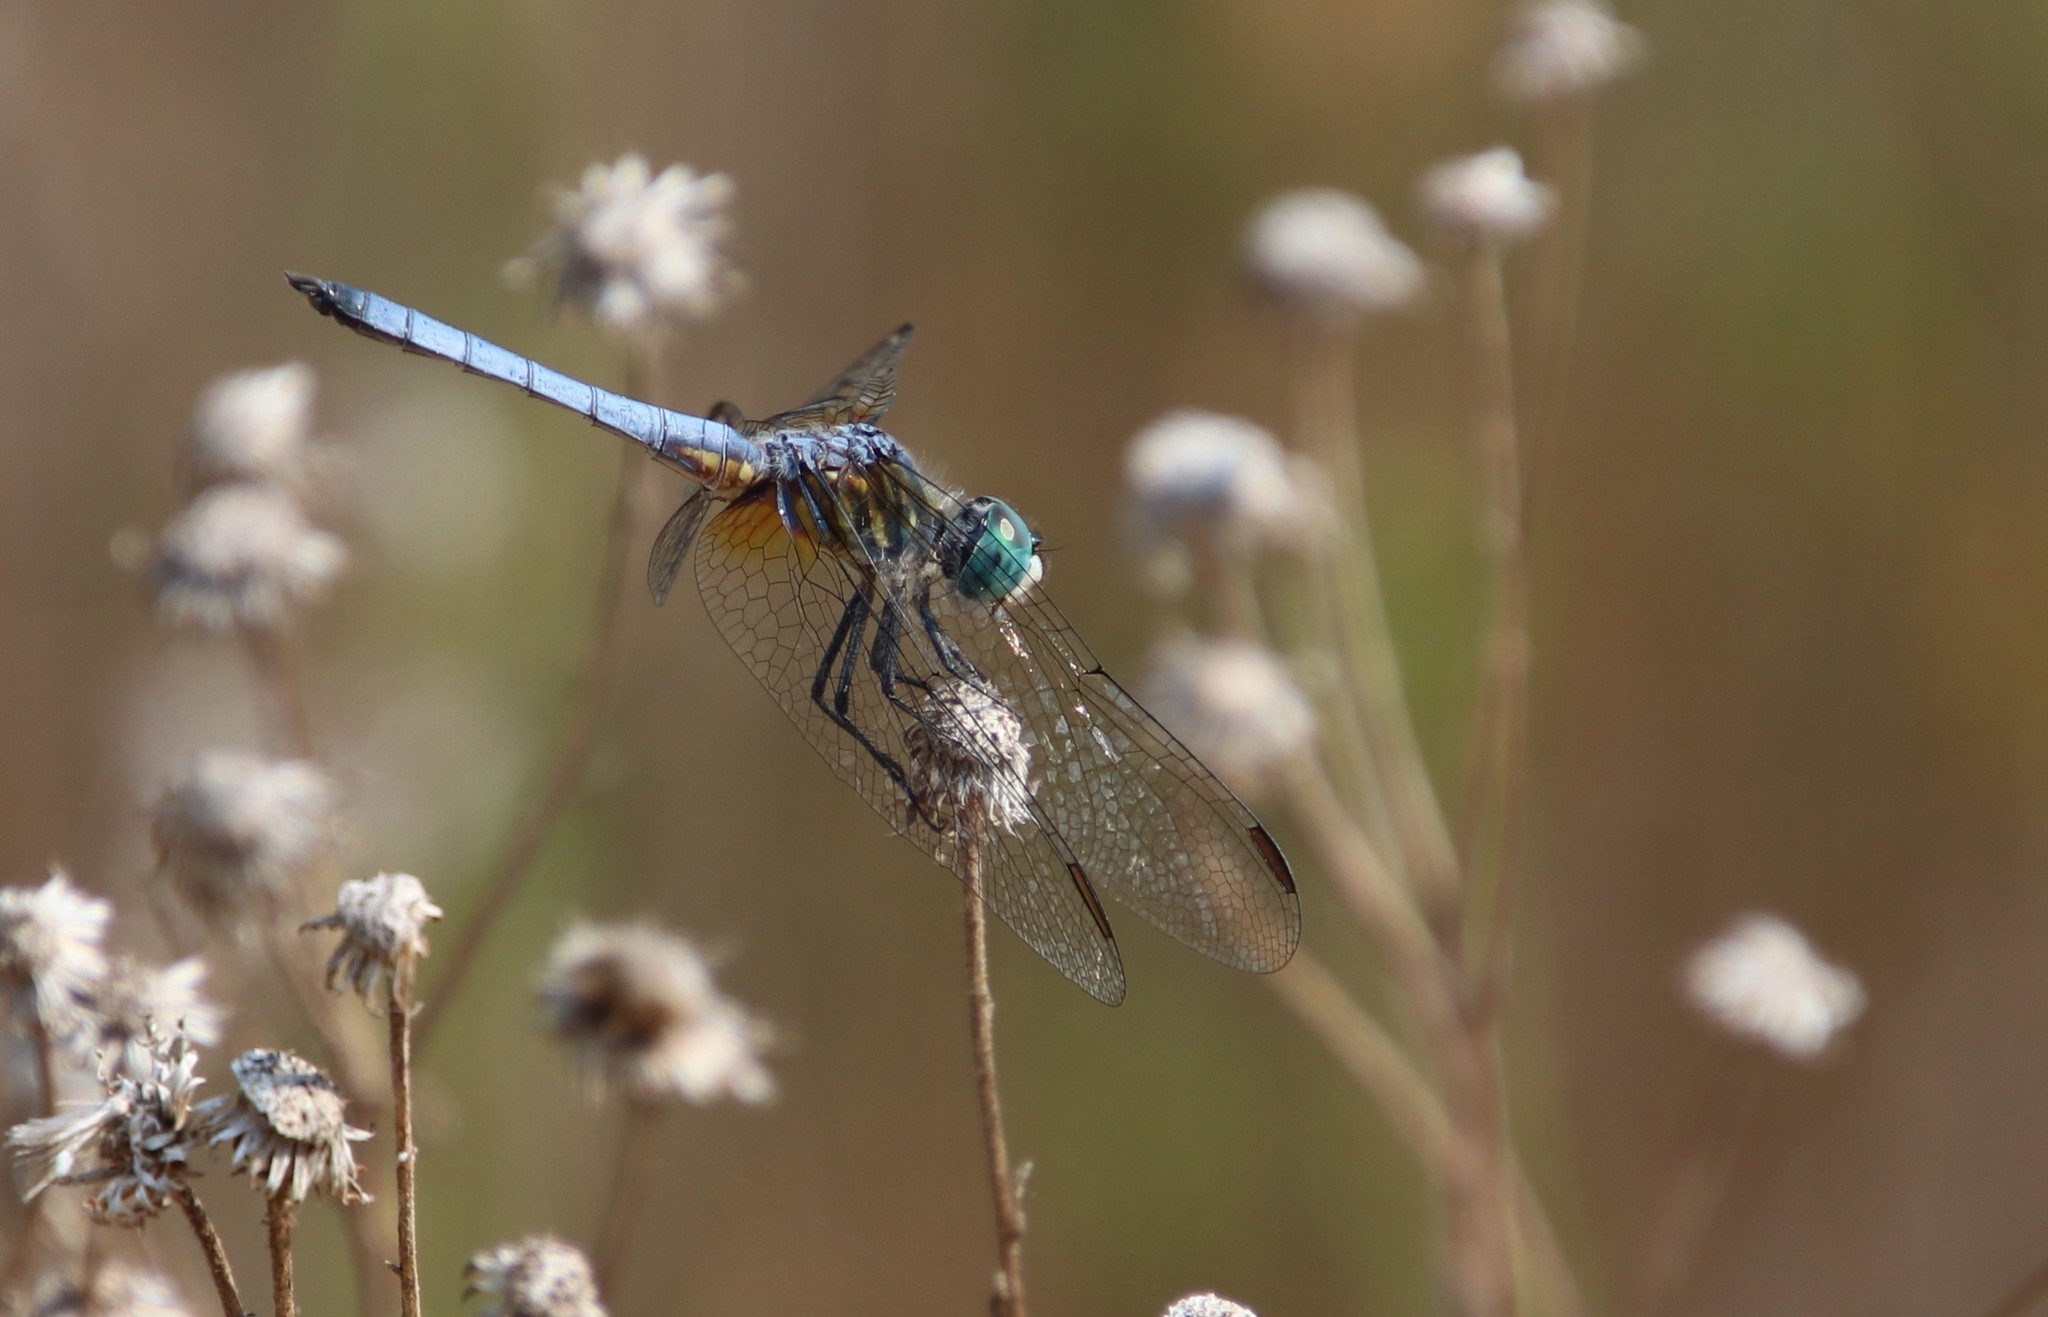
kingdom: Animalia
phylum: Arthropoda
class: Insecta
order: Odonata
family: Libellulidae
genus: Pachydiplax
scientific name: Pachydiplax longipennis
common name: Blue dasher
